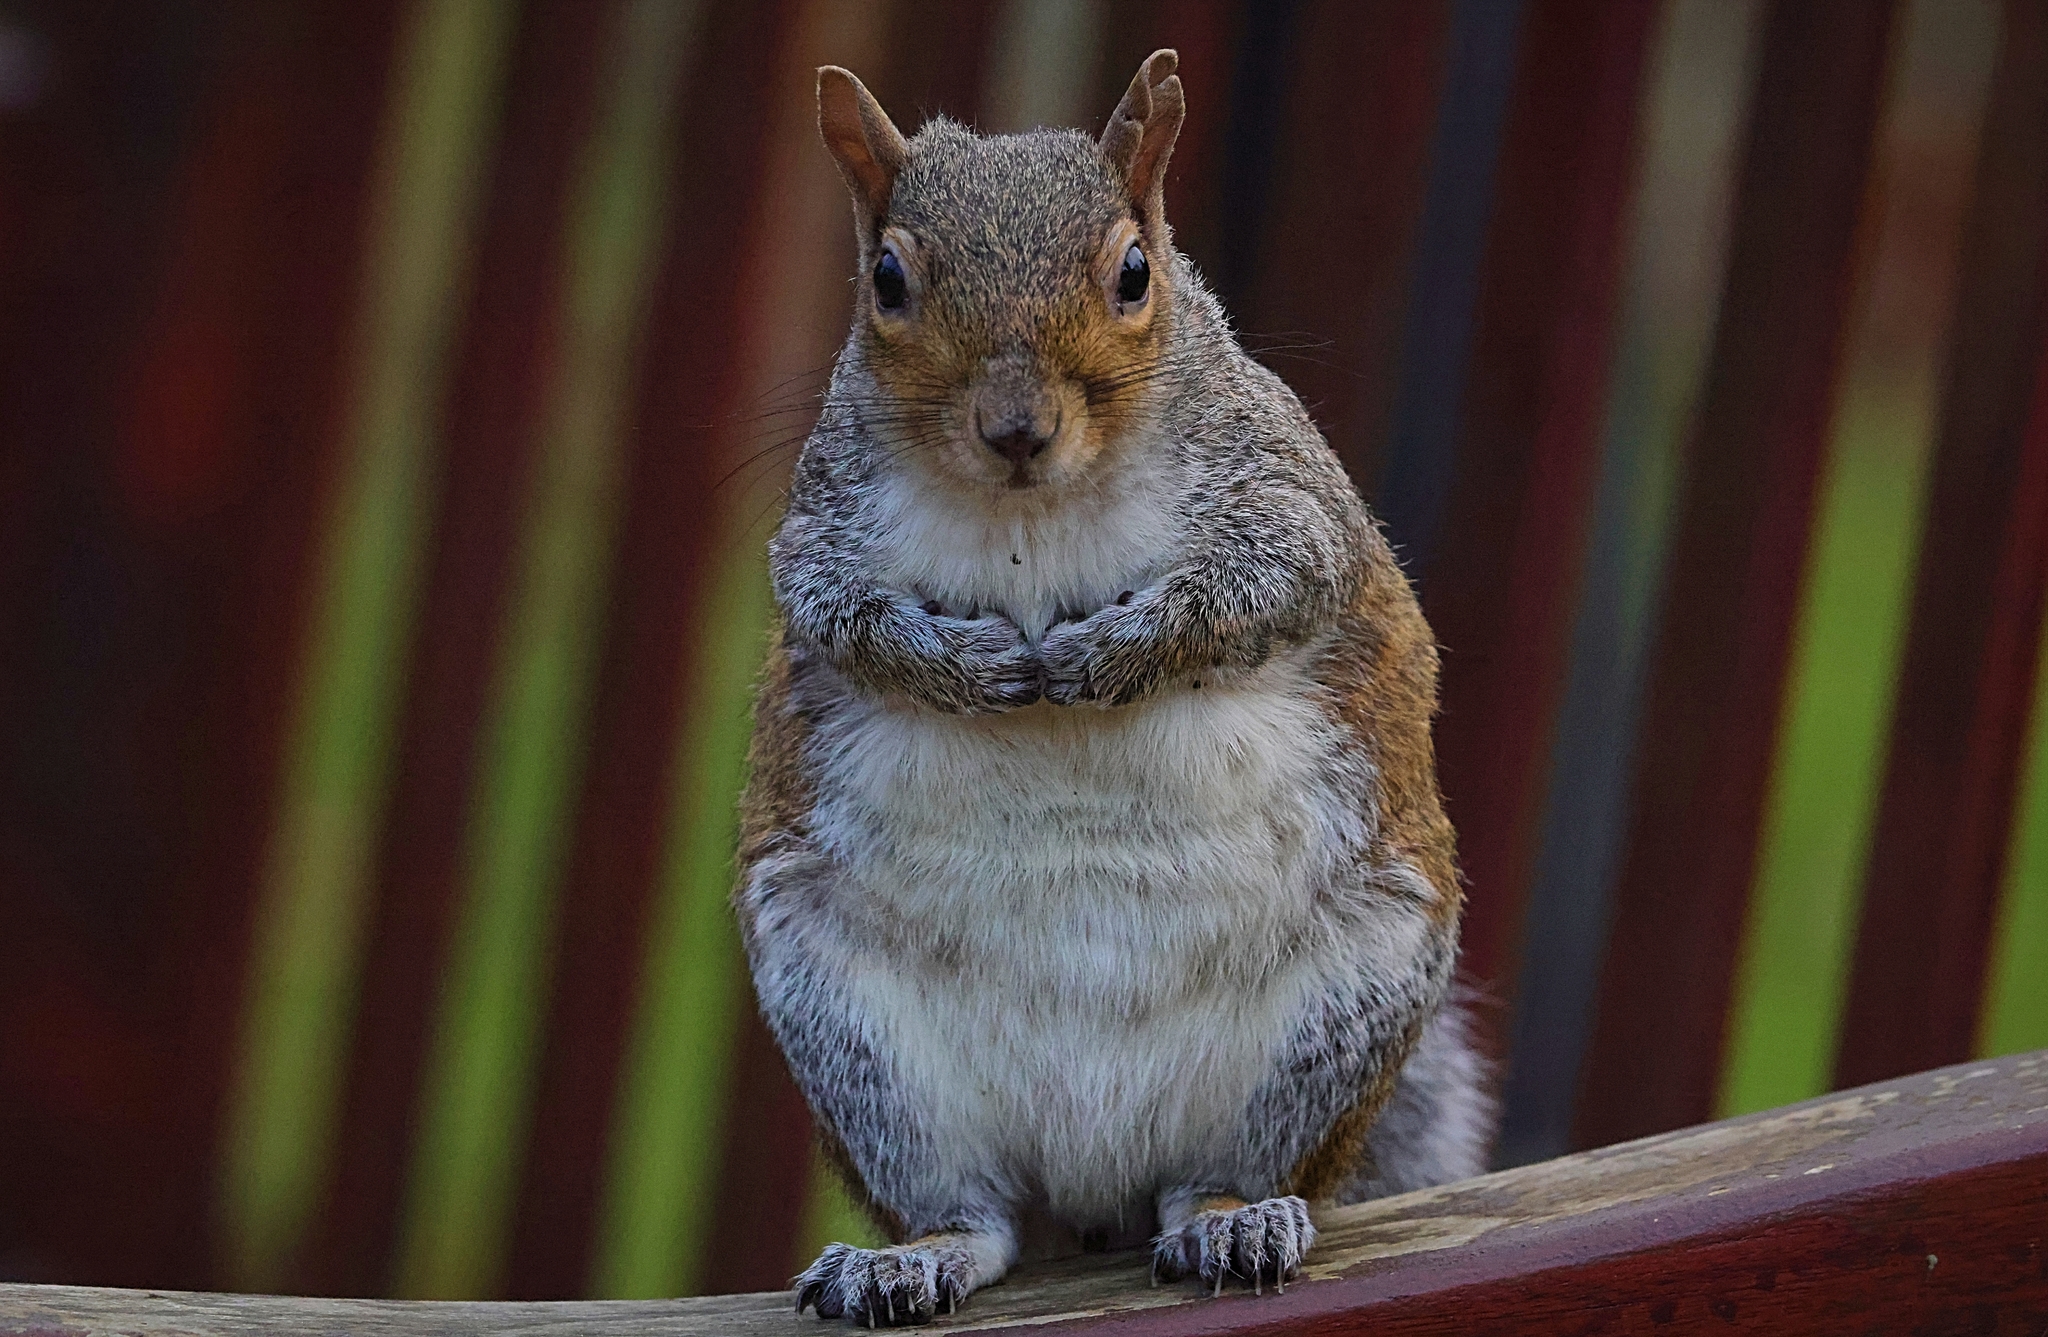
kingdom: Animalia
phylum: Chordata
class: Mammalia
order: Rodentia
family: Sciuridae
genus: Sciurus
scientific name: Sciurus carolinensis
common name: Eastern gray squirrel
